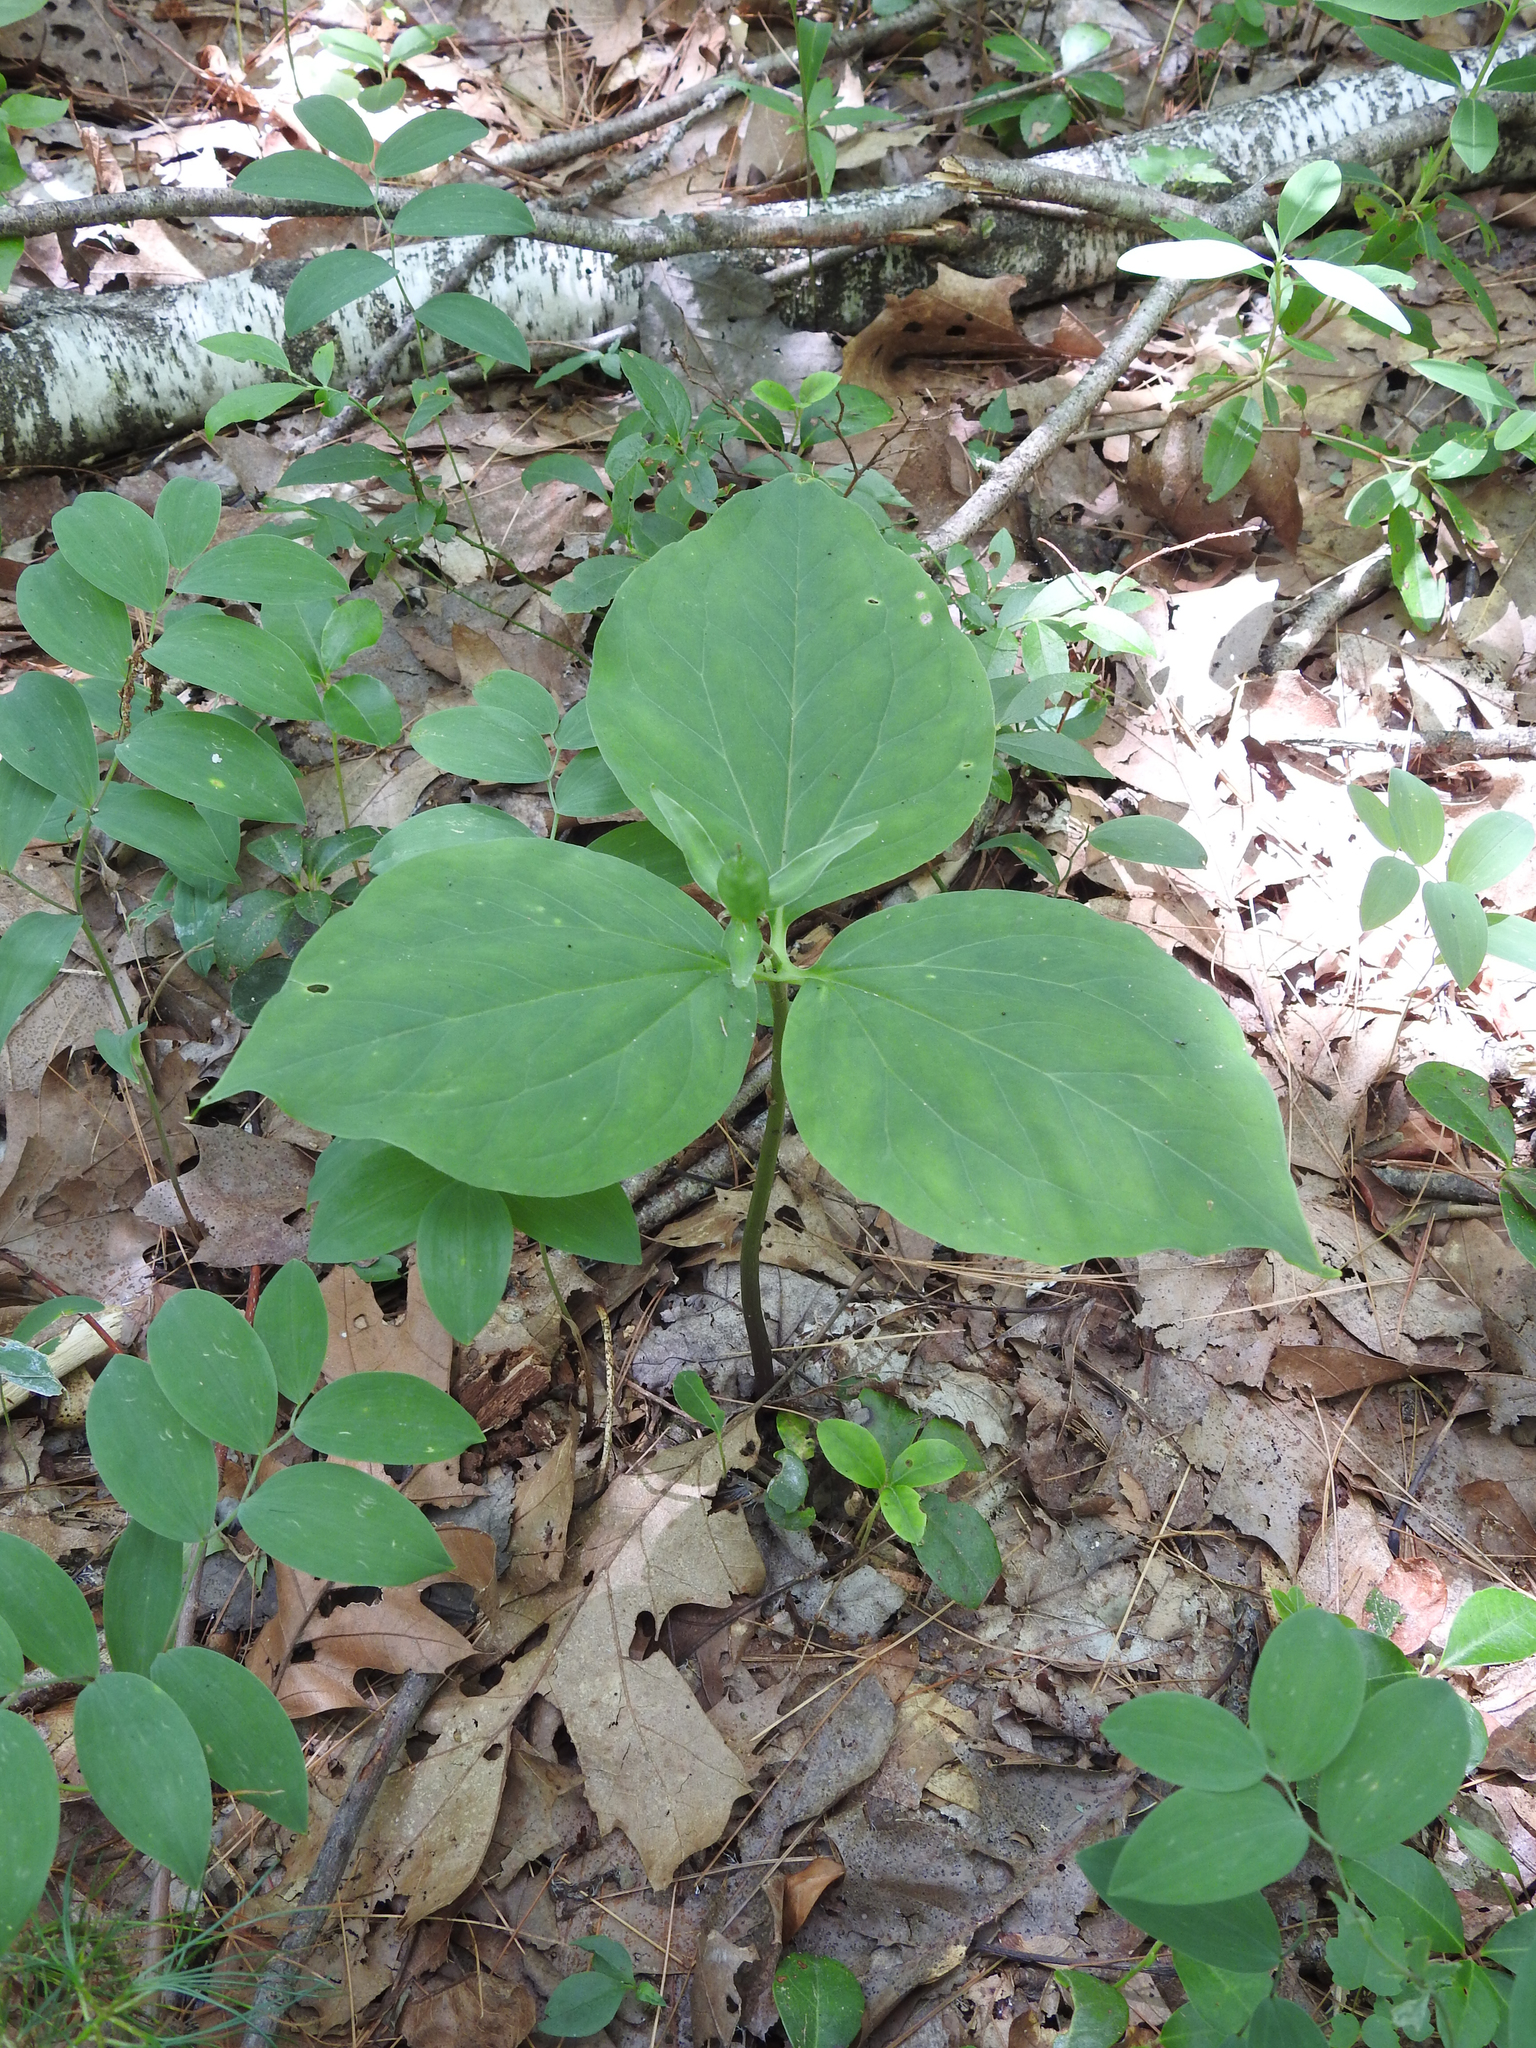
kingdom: Plantae
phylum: Tracheophyta
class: Liliopsida
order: Liliales
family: Melanthiaceae
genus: Trillium
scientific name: Trillium undulatum
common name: Paint trillium
